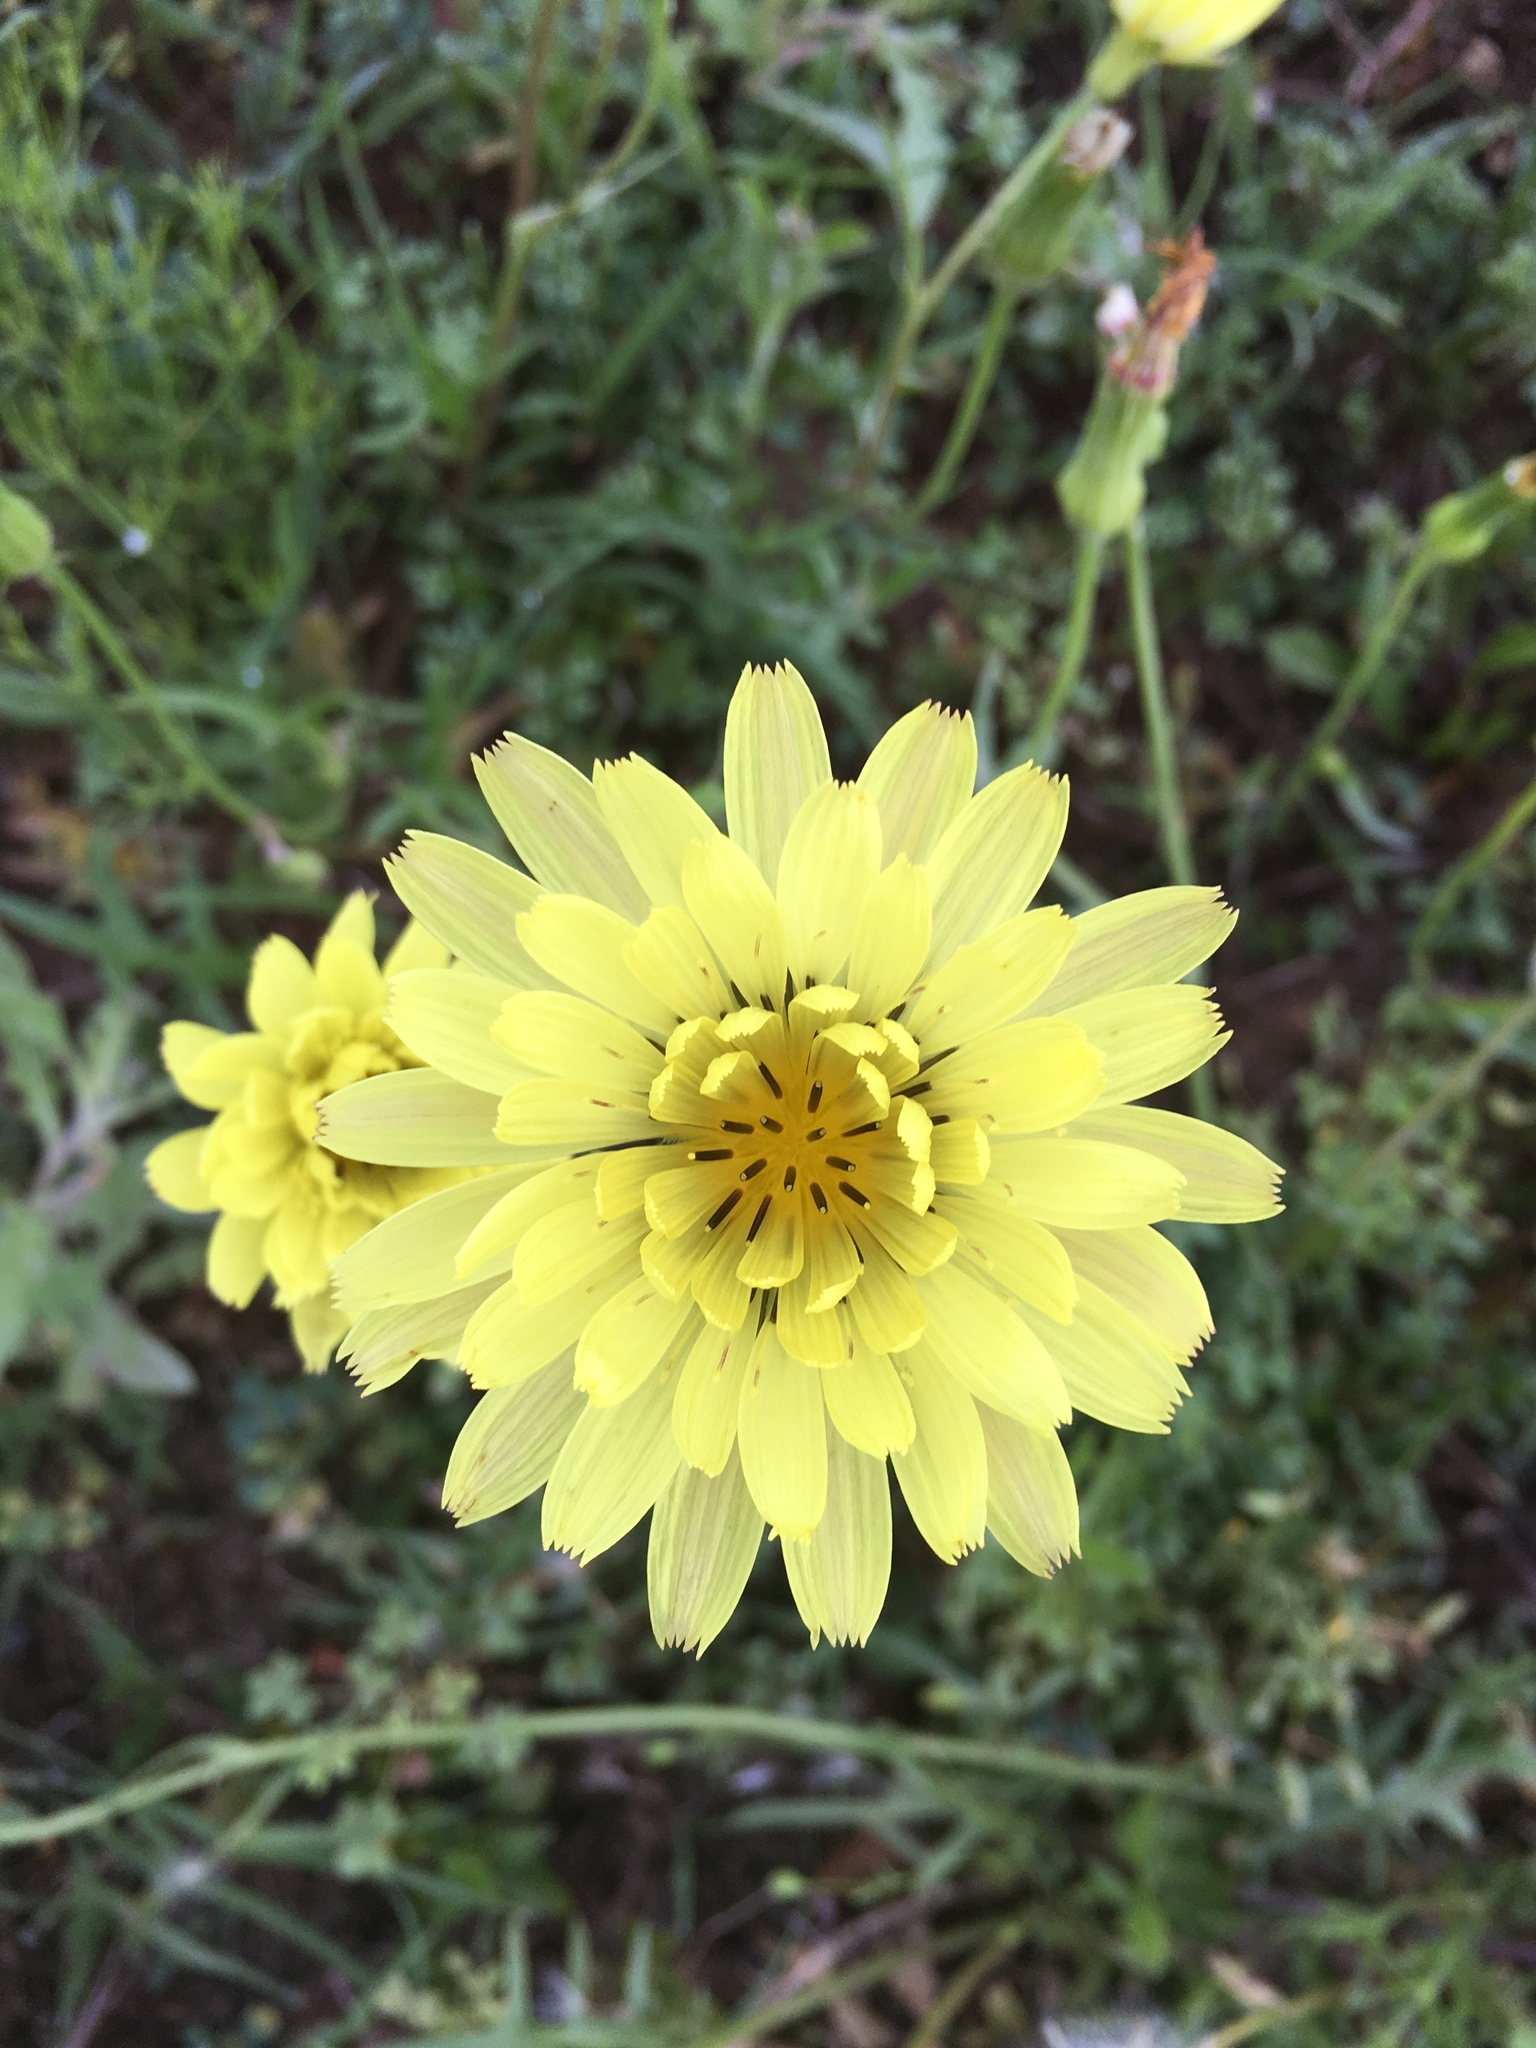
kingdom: Plantae
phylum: Tracheophyta
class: Magnoliopsida
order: Asterales
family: Asteraceae
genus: Pyrrhopappus
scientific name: Pyrrhopappus pauciflorus
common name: Texas false dandelion
